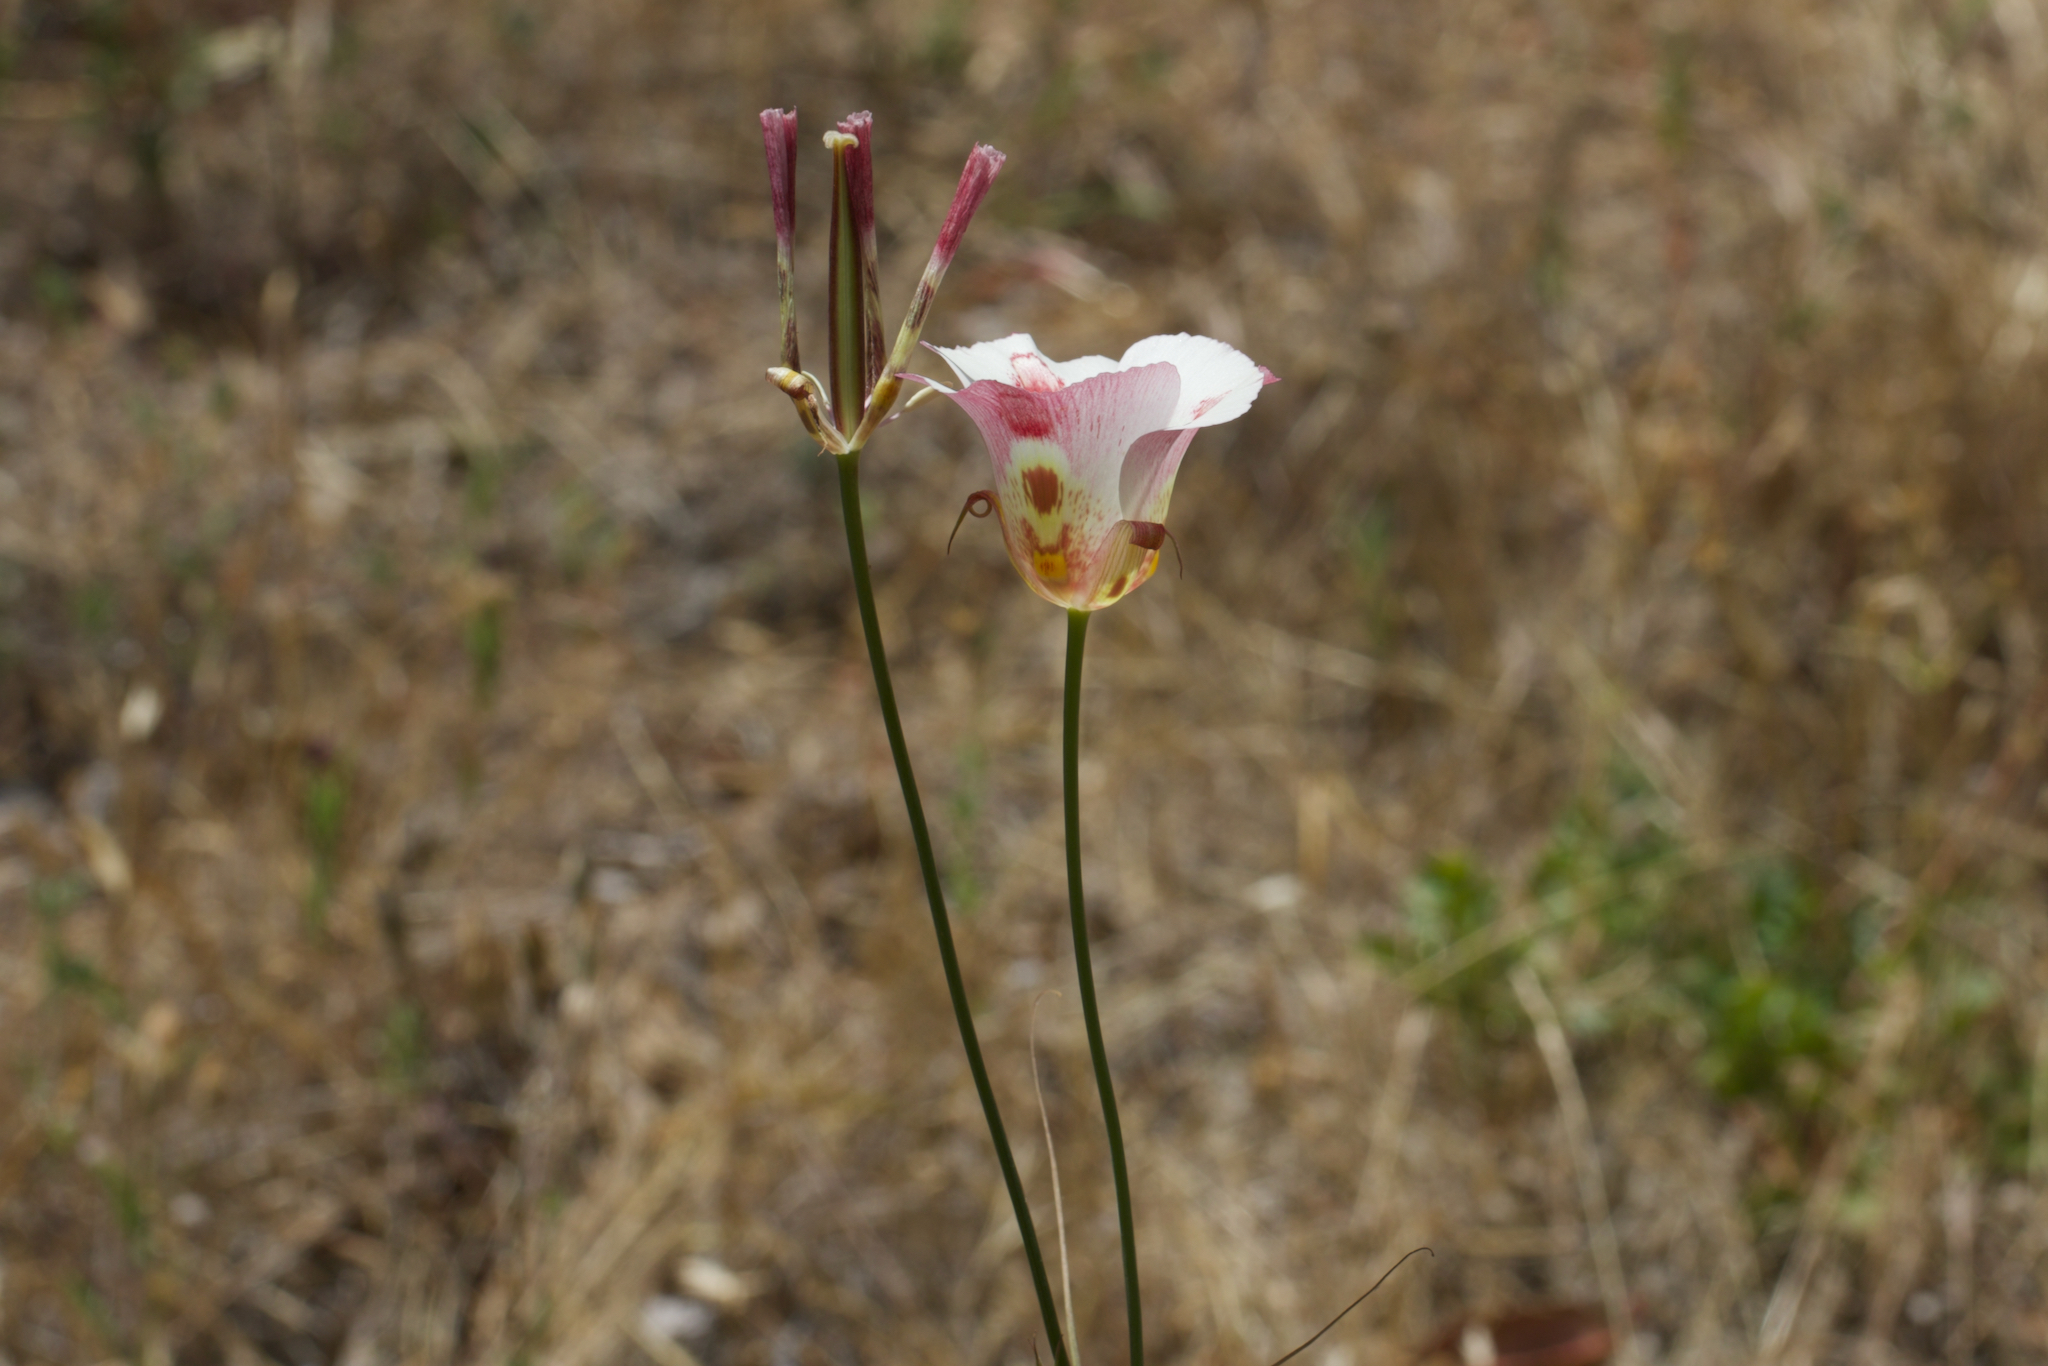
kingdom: Plantae
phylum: Tracheophyta
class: Liliopsida
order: Liliales
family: Liliaceae
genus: Calochortus
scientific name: Calochortus venustus
